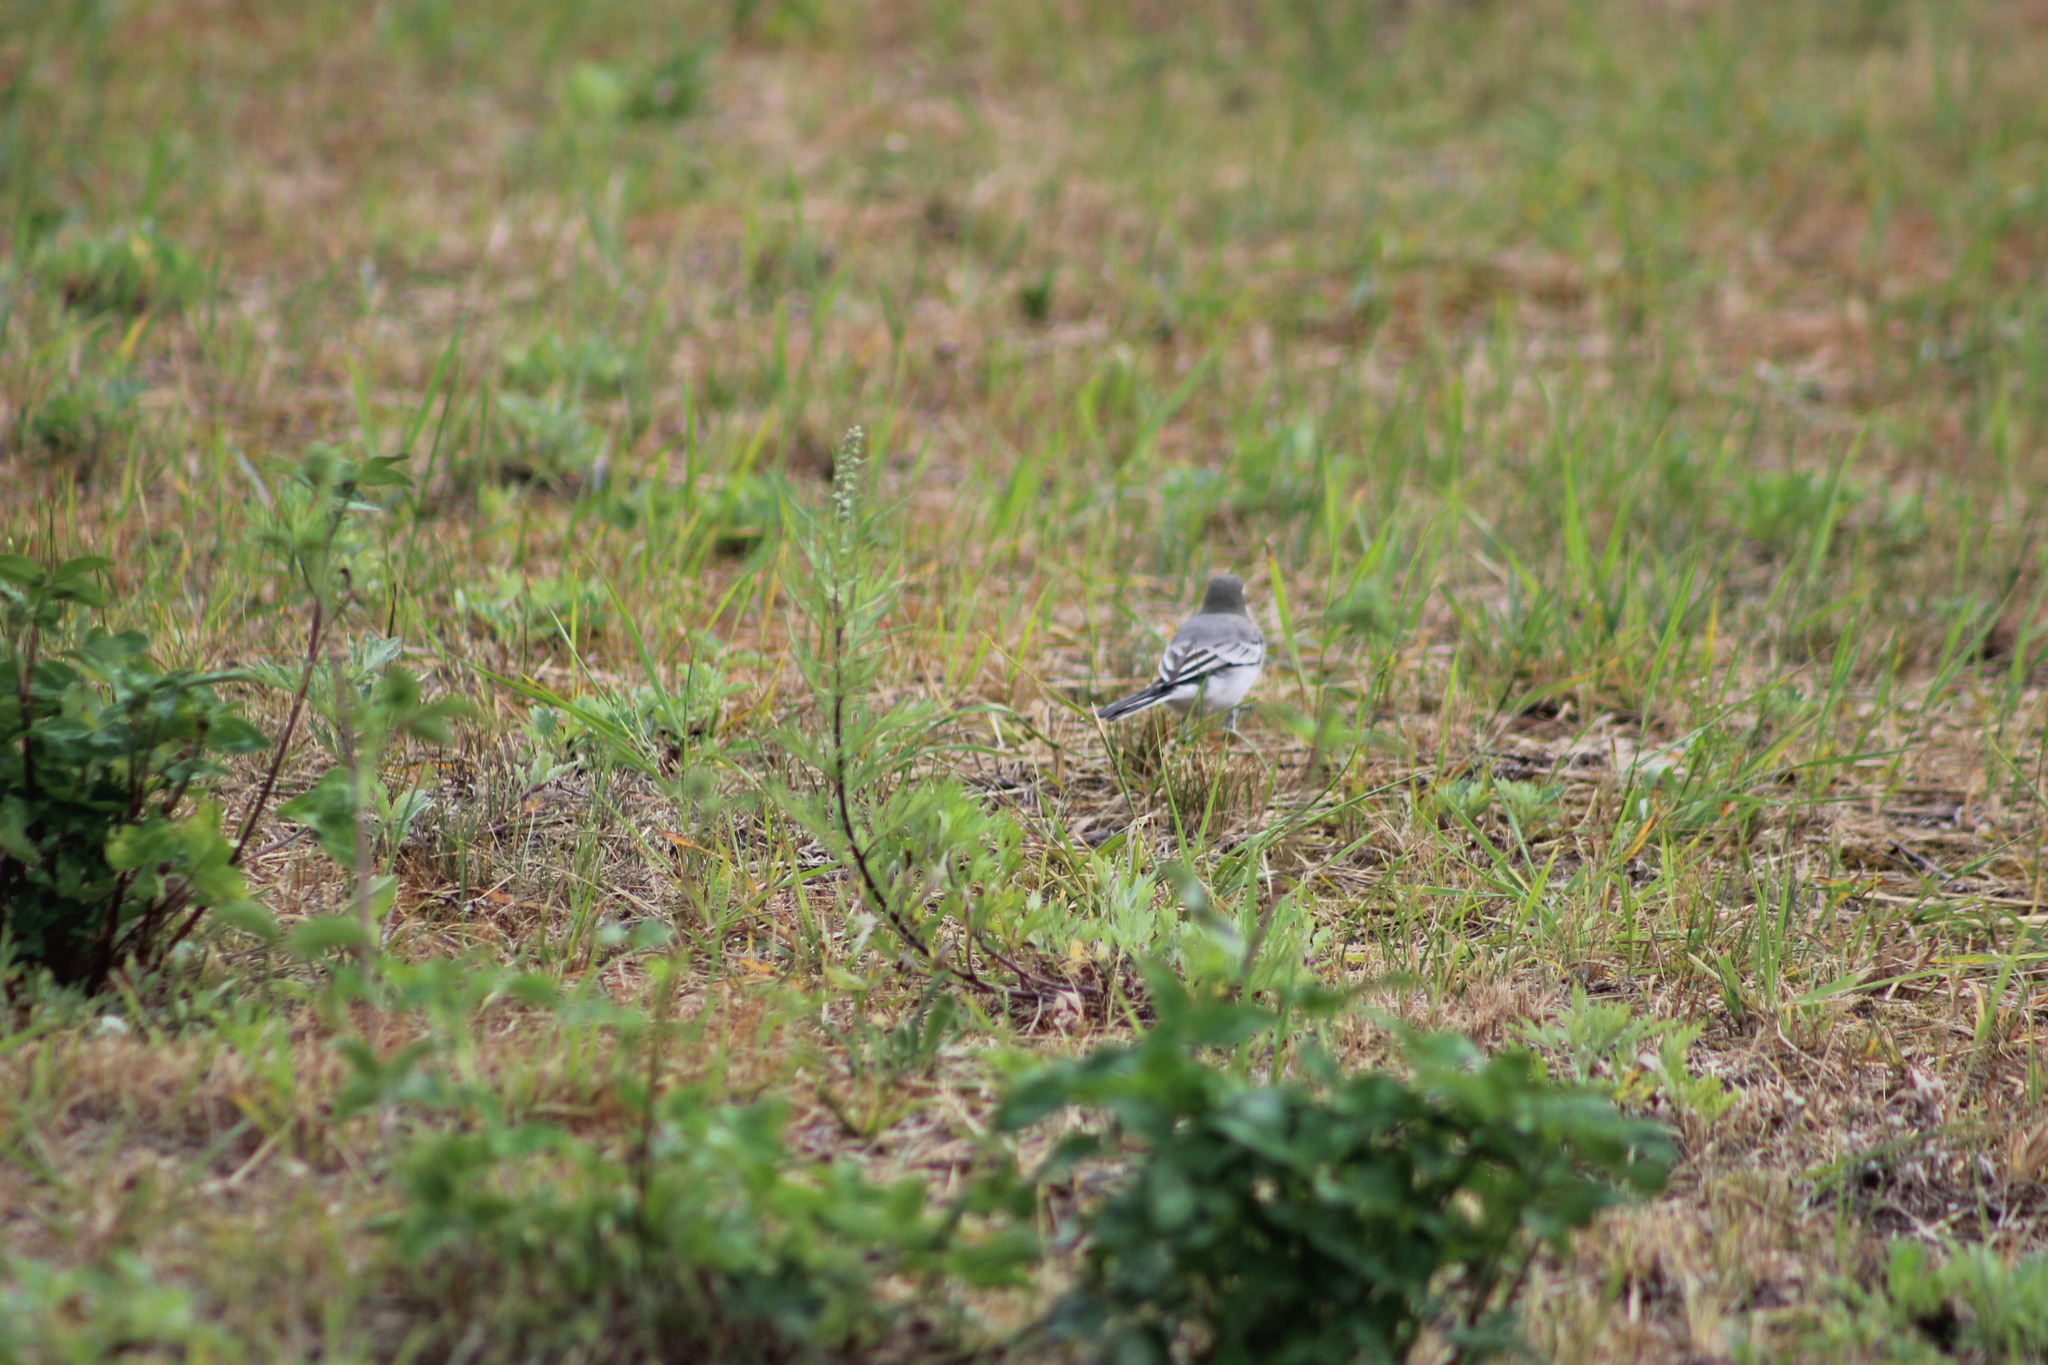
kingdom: Animalia
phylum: Chordata
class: Aves
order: Passeriformes
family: Motacillidae
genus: Motacilla
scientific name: Motacilla alba
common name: White wagtail
